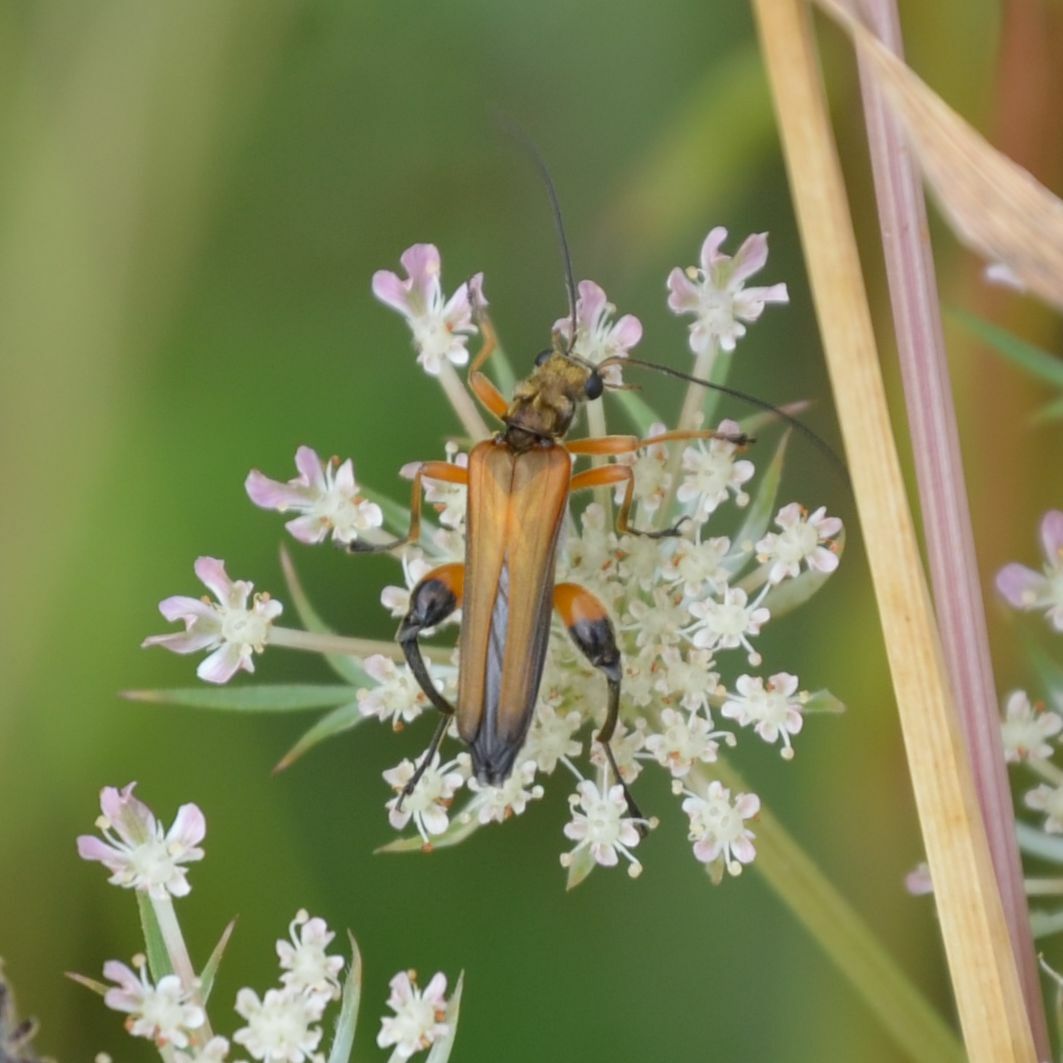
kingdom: Animalia
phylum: Arthropoda
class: Insecta
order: Coleoptera
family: Oedemeridae
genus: Oedemera
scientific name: Oedemera podagrariae
